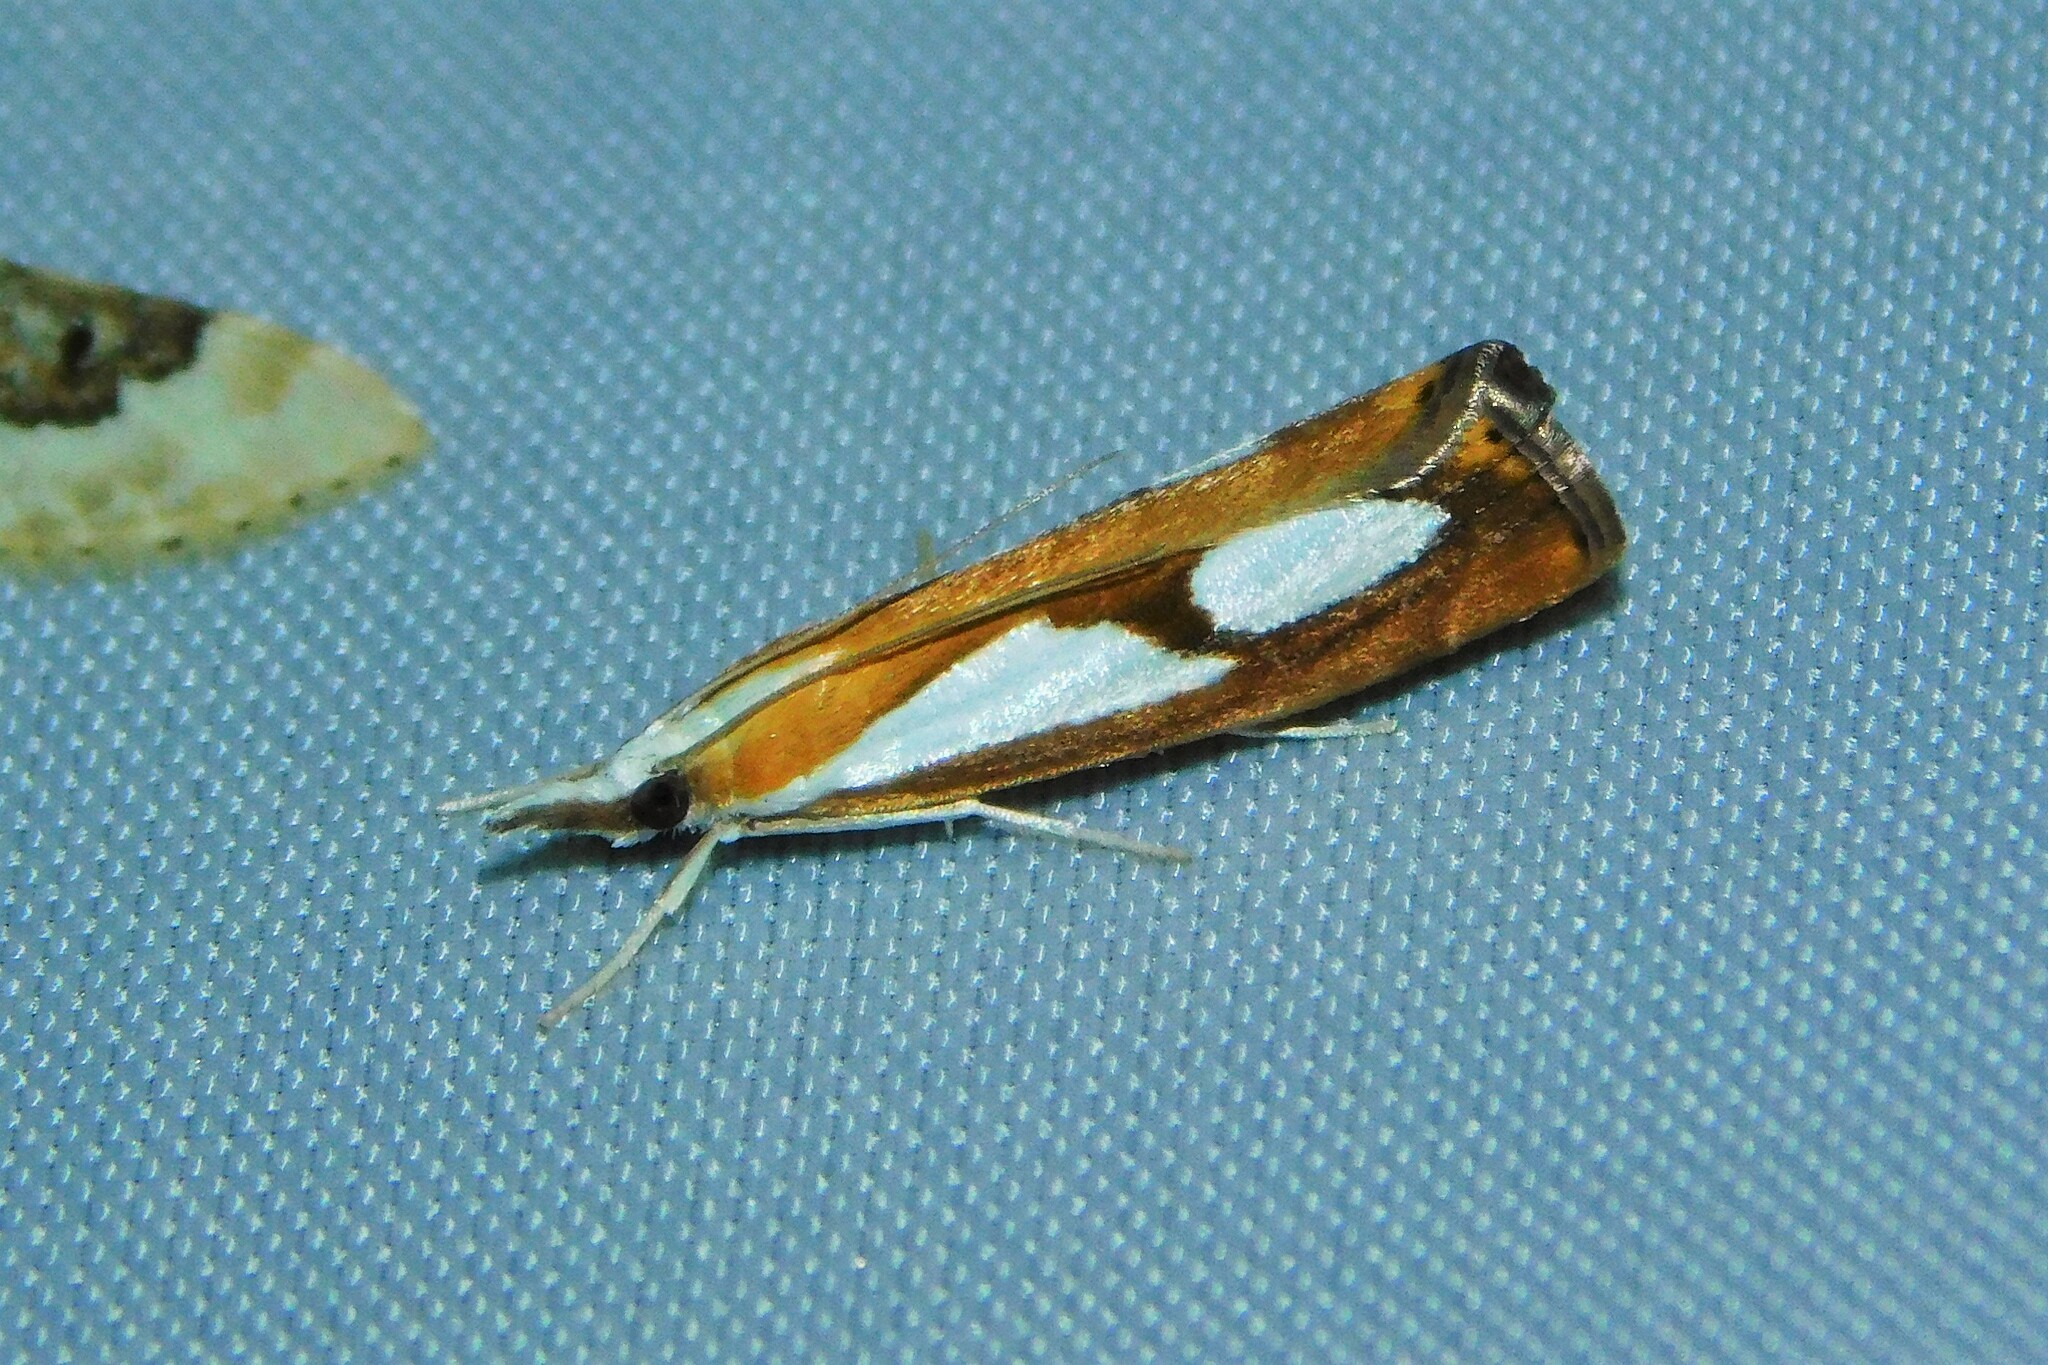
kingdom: Animalia
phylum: Arthropoda
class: Insecta
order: Lepidoptera
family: Crambidae
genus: Catoptria
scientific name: Catoptria pinella
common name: Pearl grass-veneer
